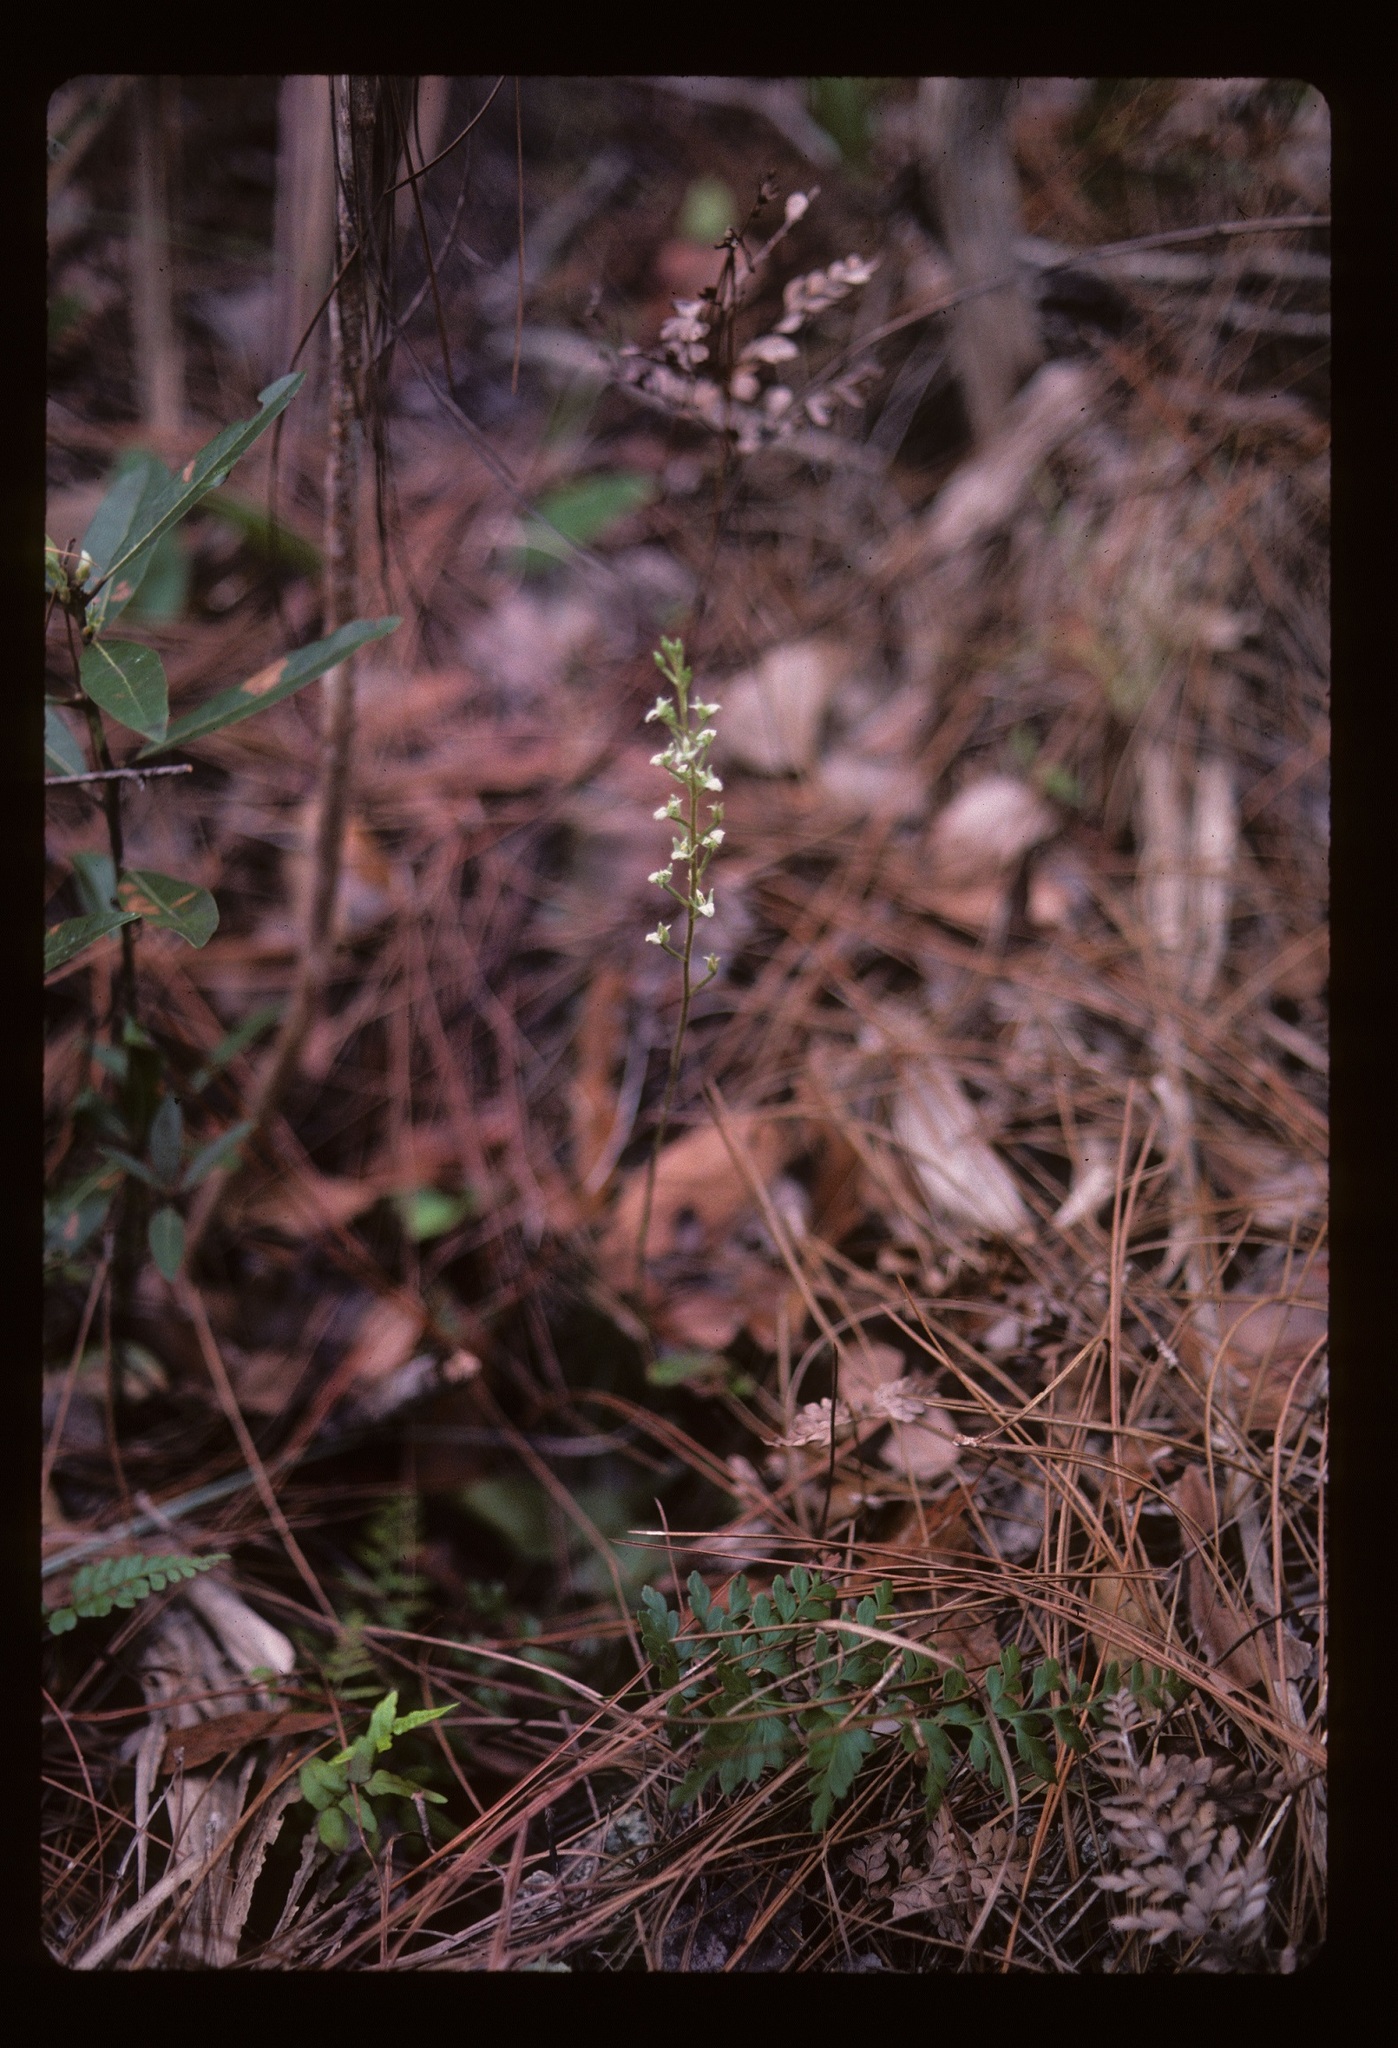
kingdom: Plantae
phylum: Tracheophyta
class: Liliopsida
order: Asparagales
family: Orchidaceae
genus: Ponthieva
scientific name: Ponthieva brittoniae
